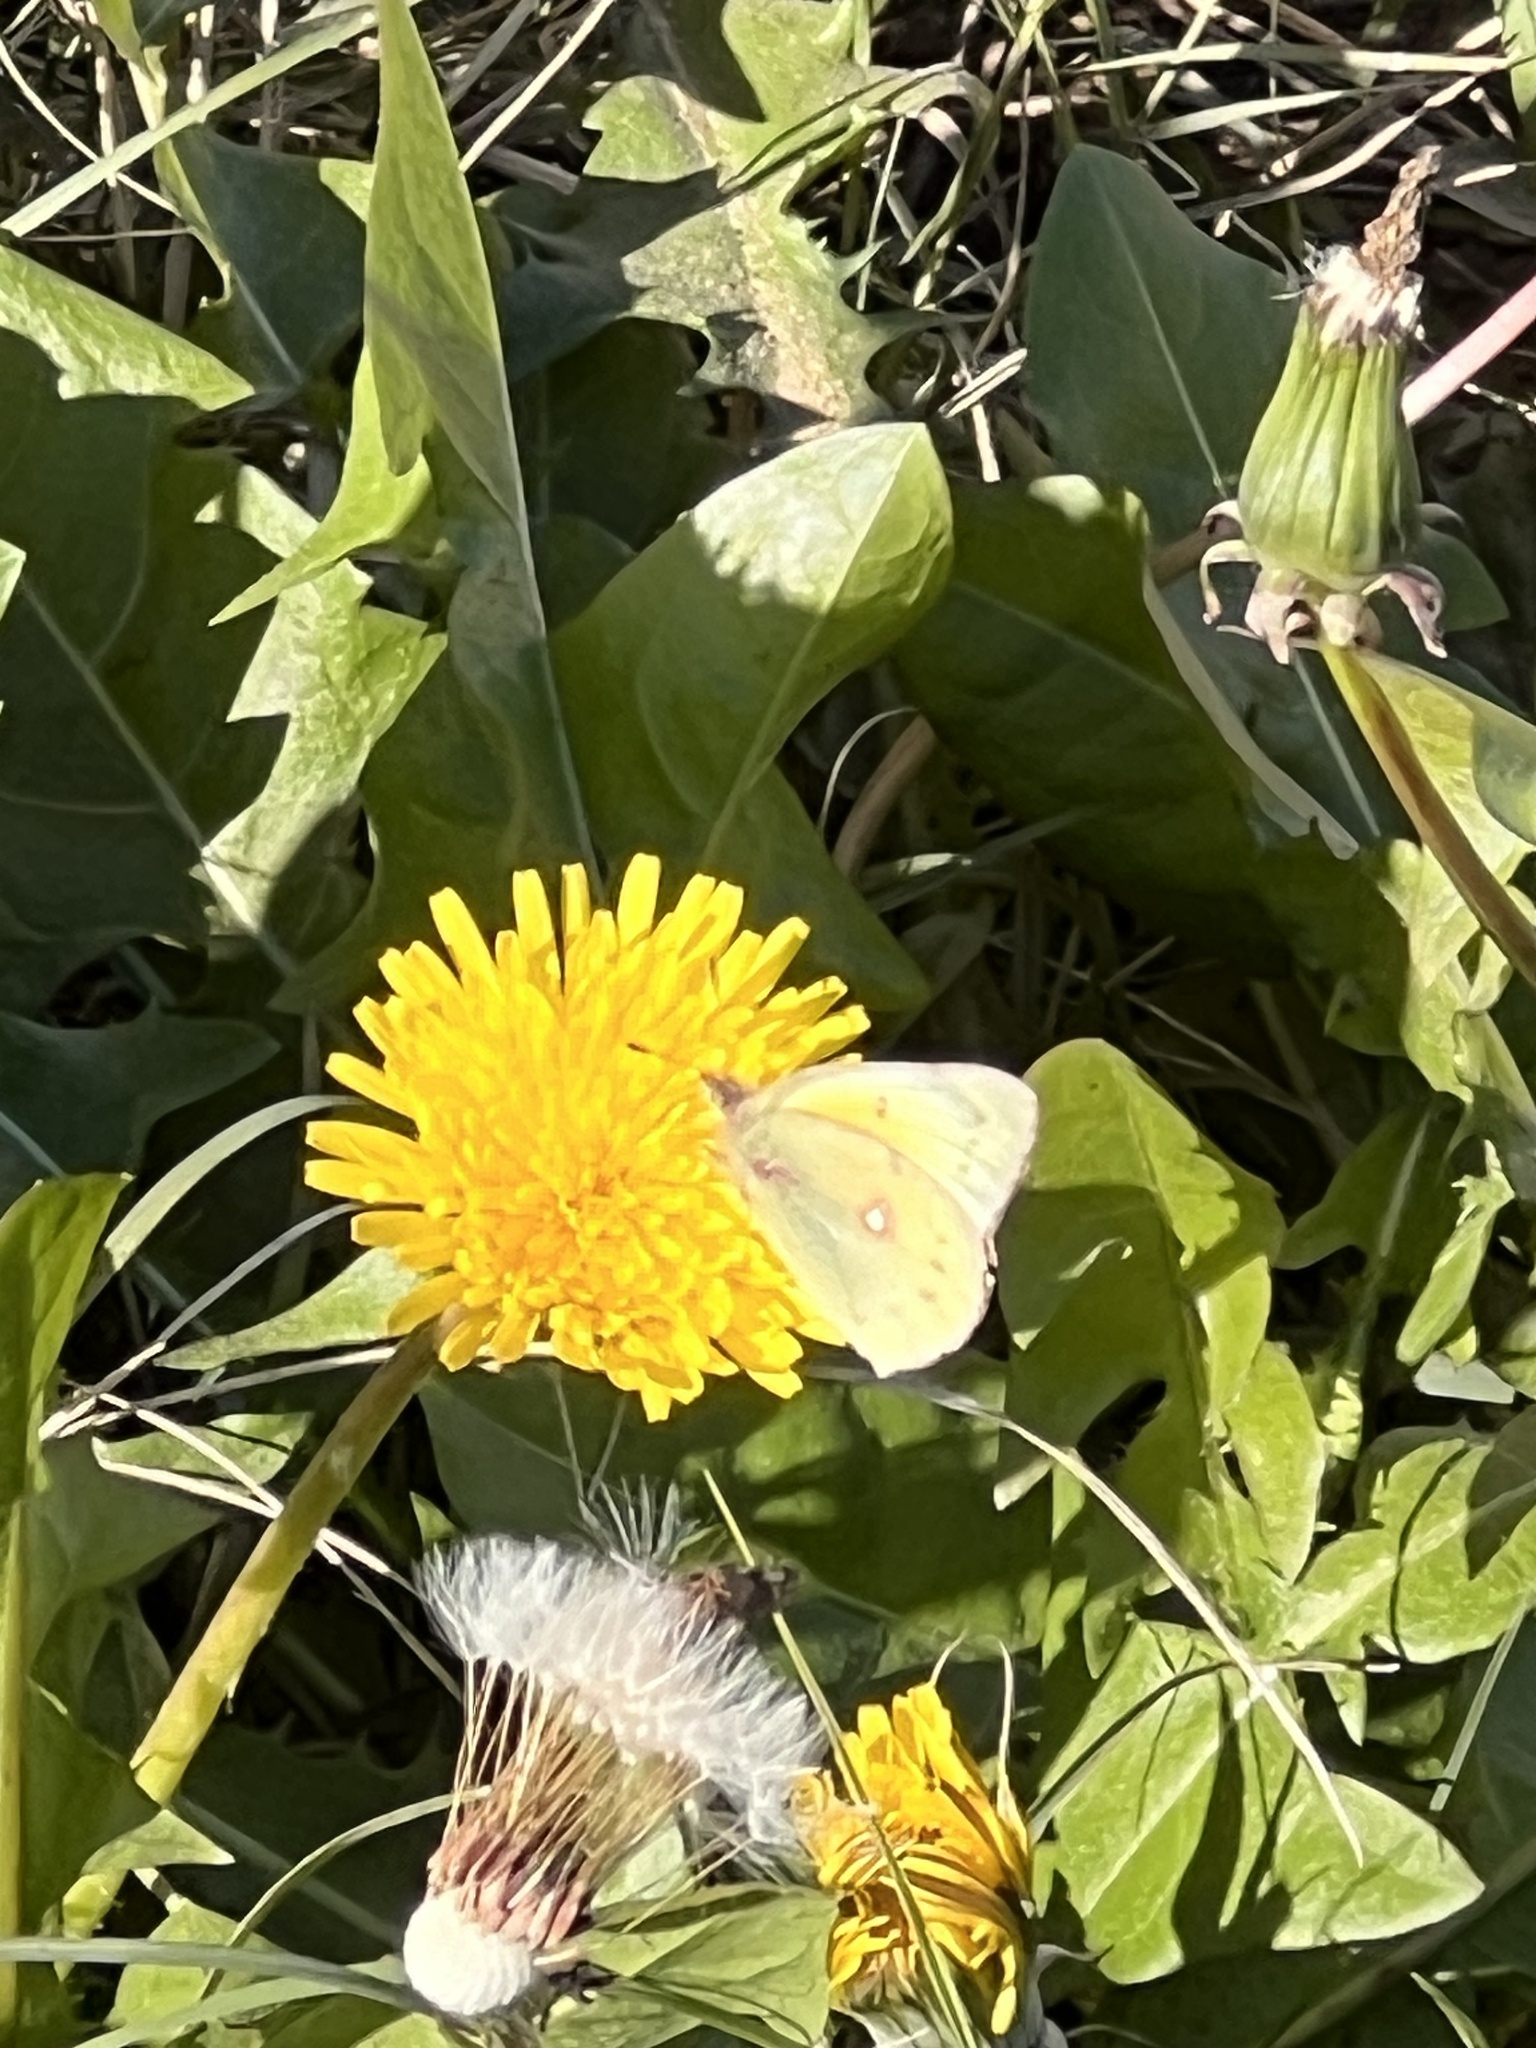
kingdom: Animalia
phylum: Arthropoda
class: Insecta
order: Lepidoptera
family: Pieridae
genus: Colias
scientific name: Colias eurytheme
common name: Alfalfa butterfly
